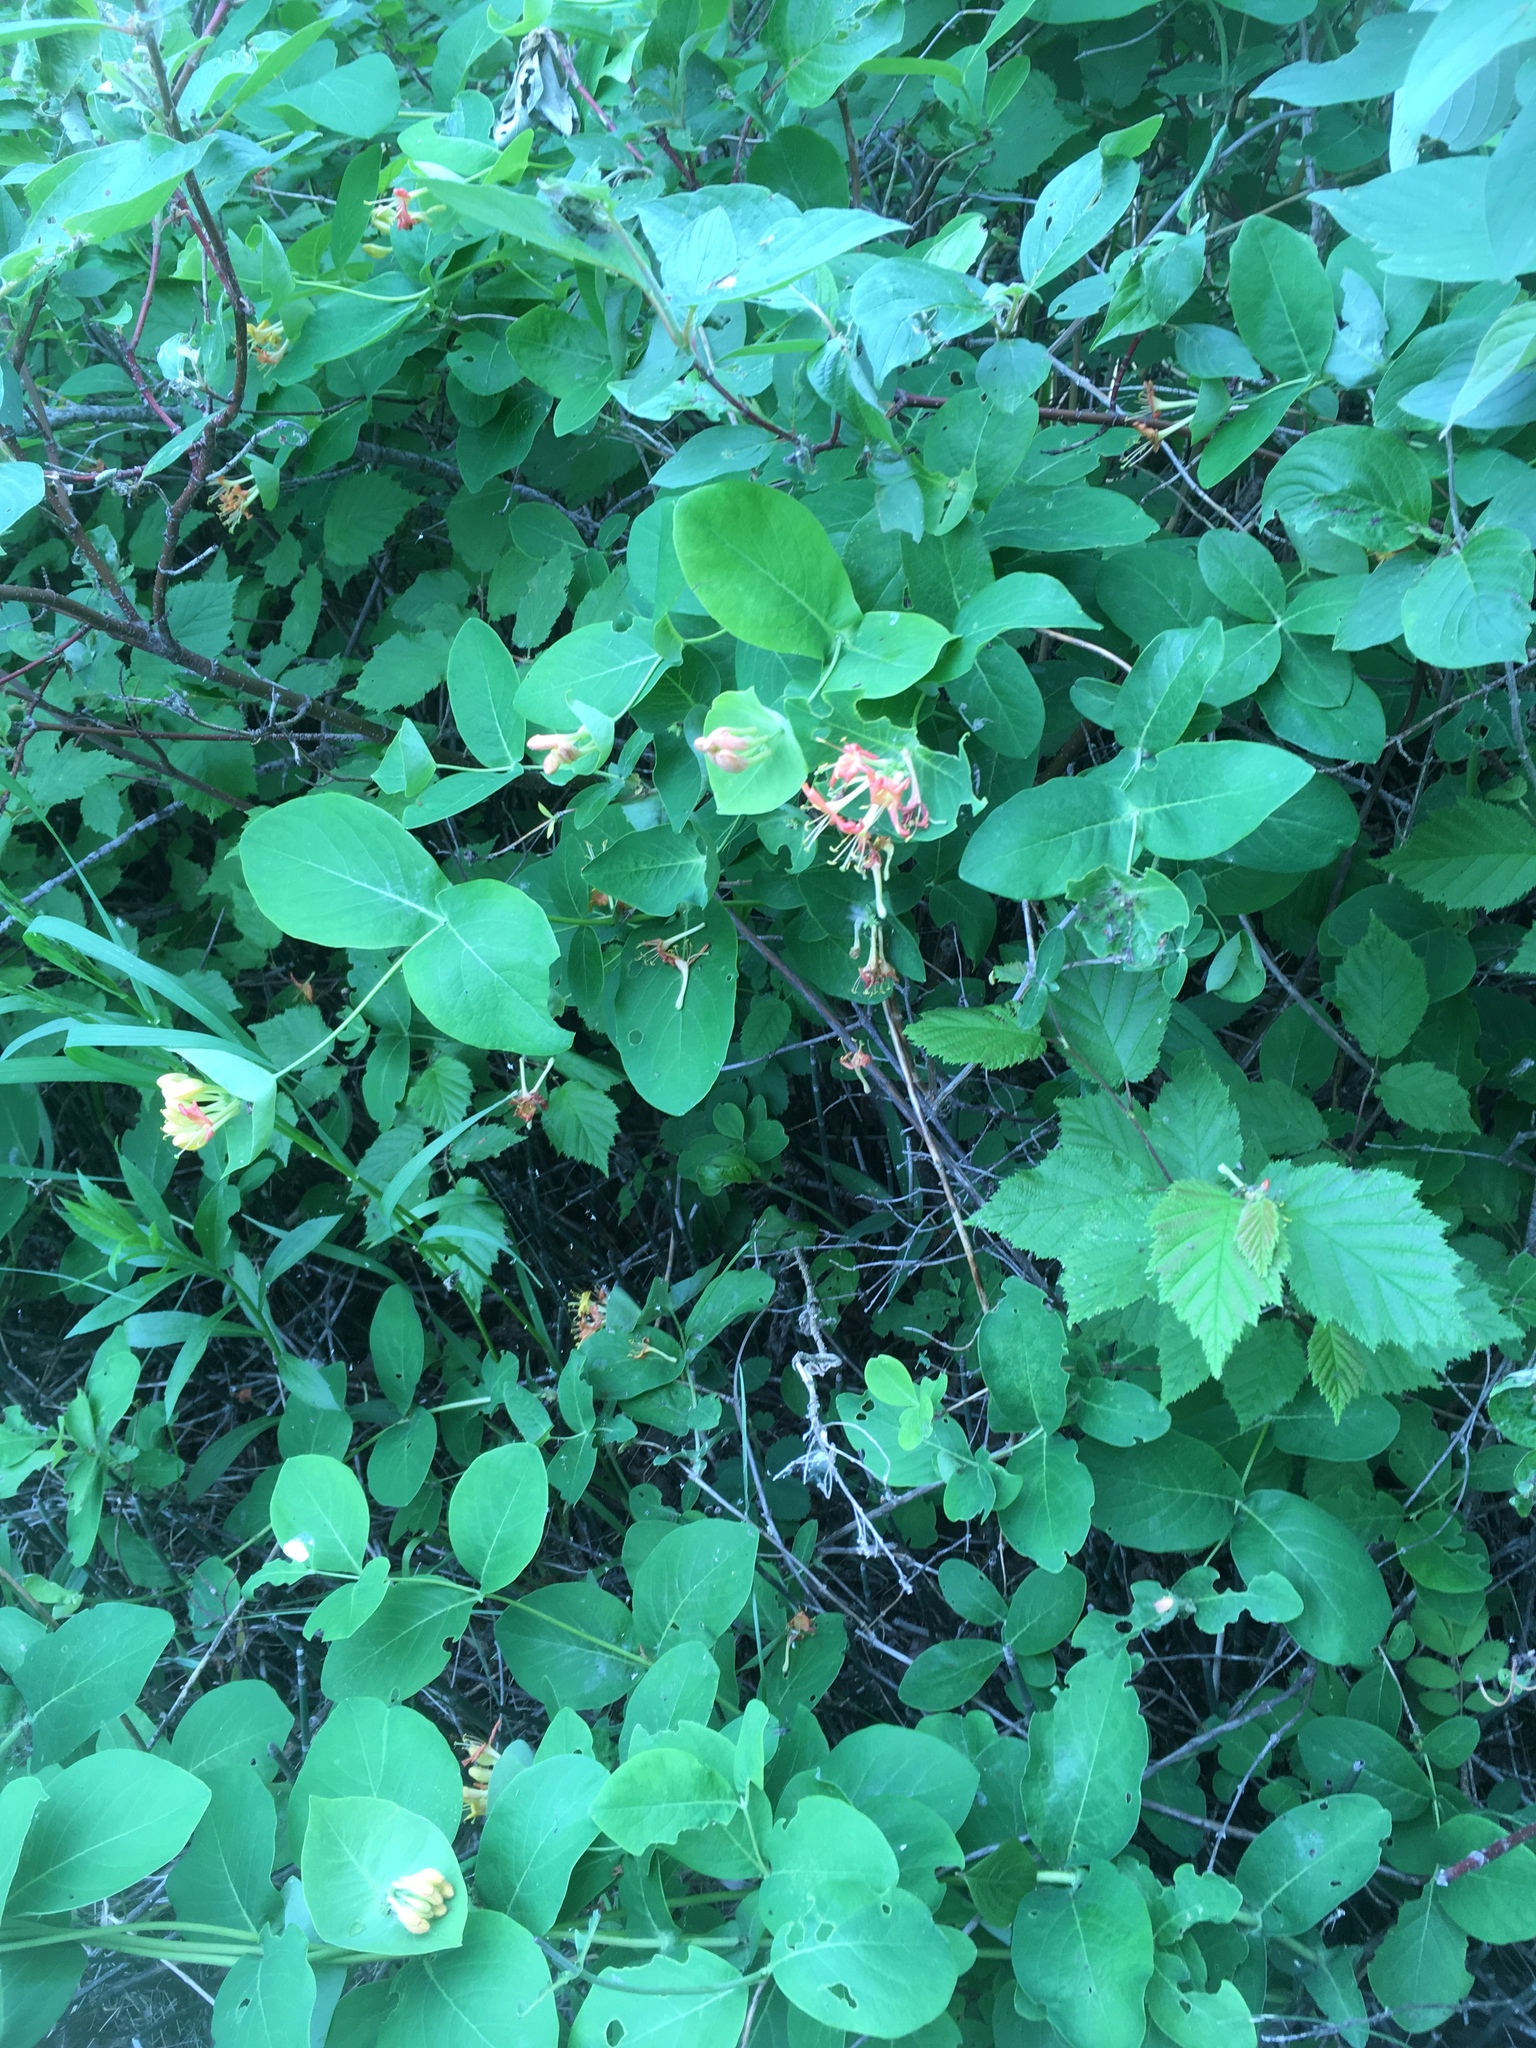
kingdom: Plantae
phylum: Tracheophyta
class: Magnoliopsida
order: Dipsacales
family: Caprifoliaceae
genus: Lonicera
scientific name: Lonicera dioica
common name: Limber honeysuckle
